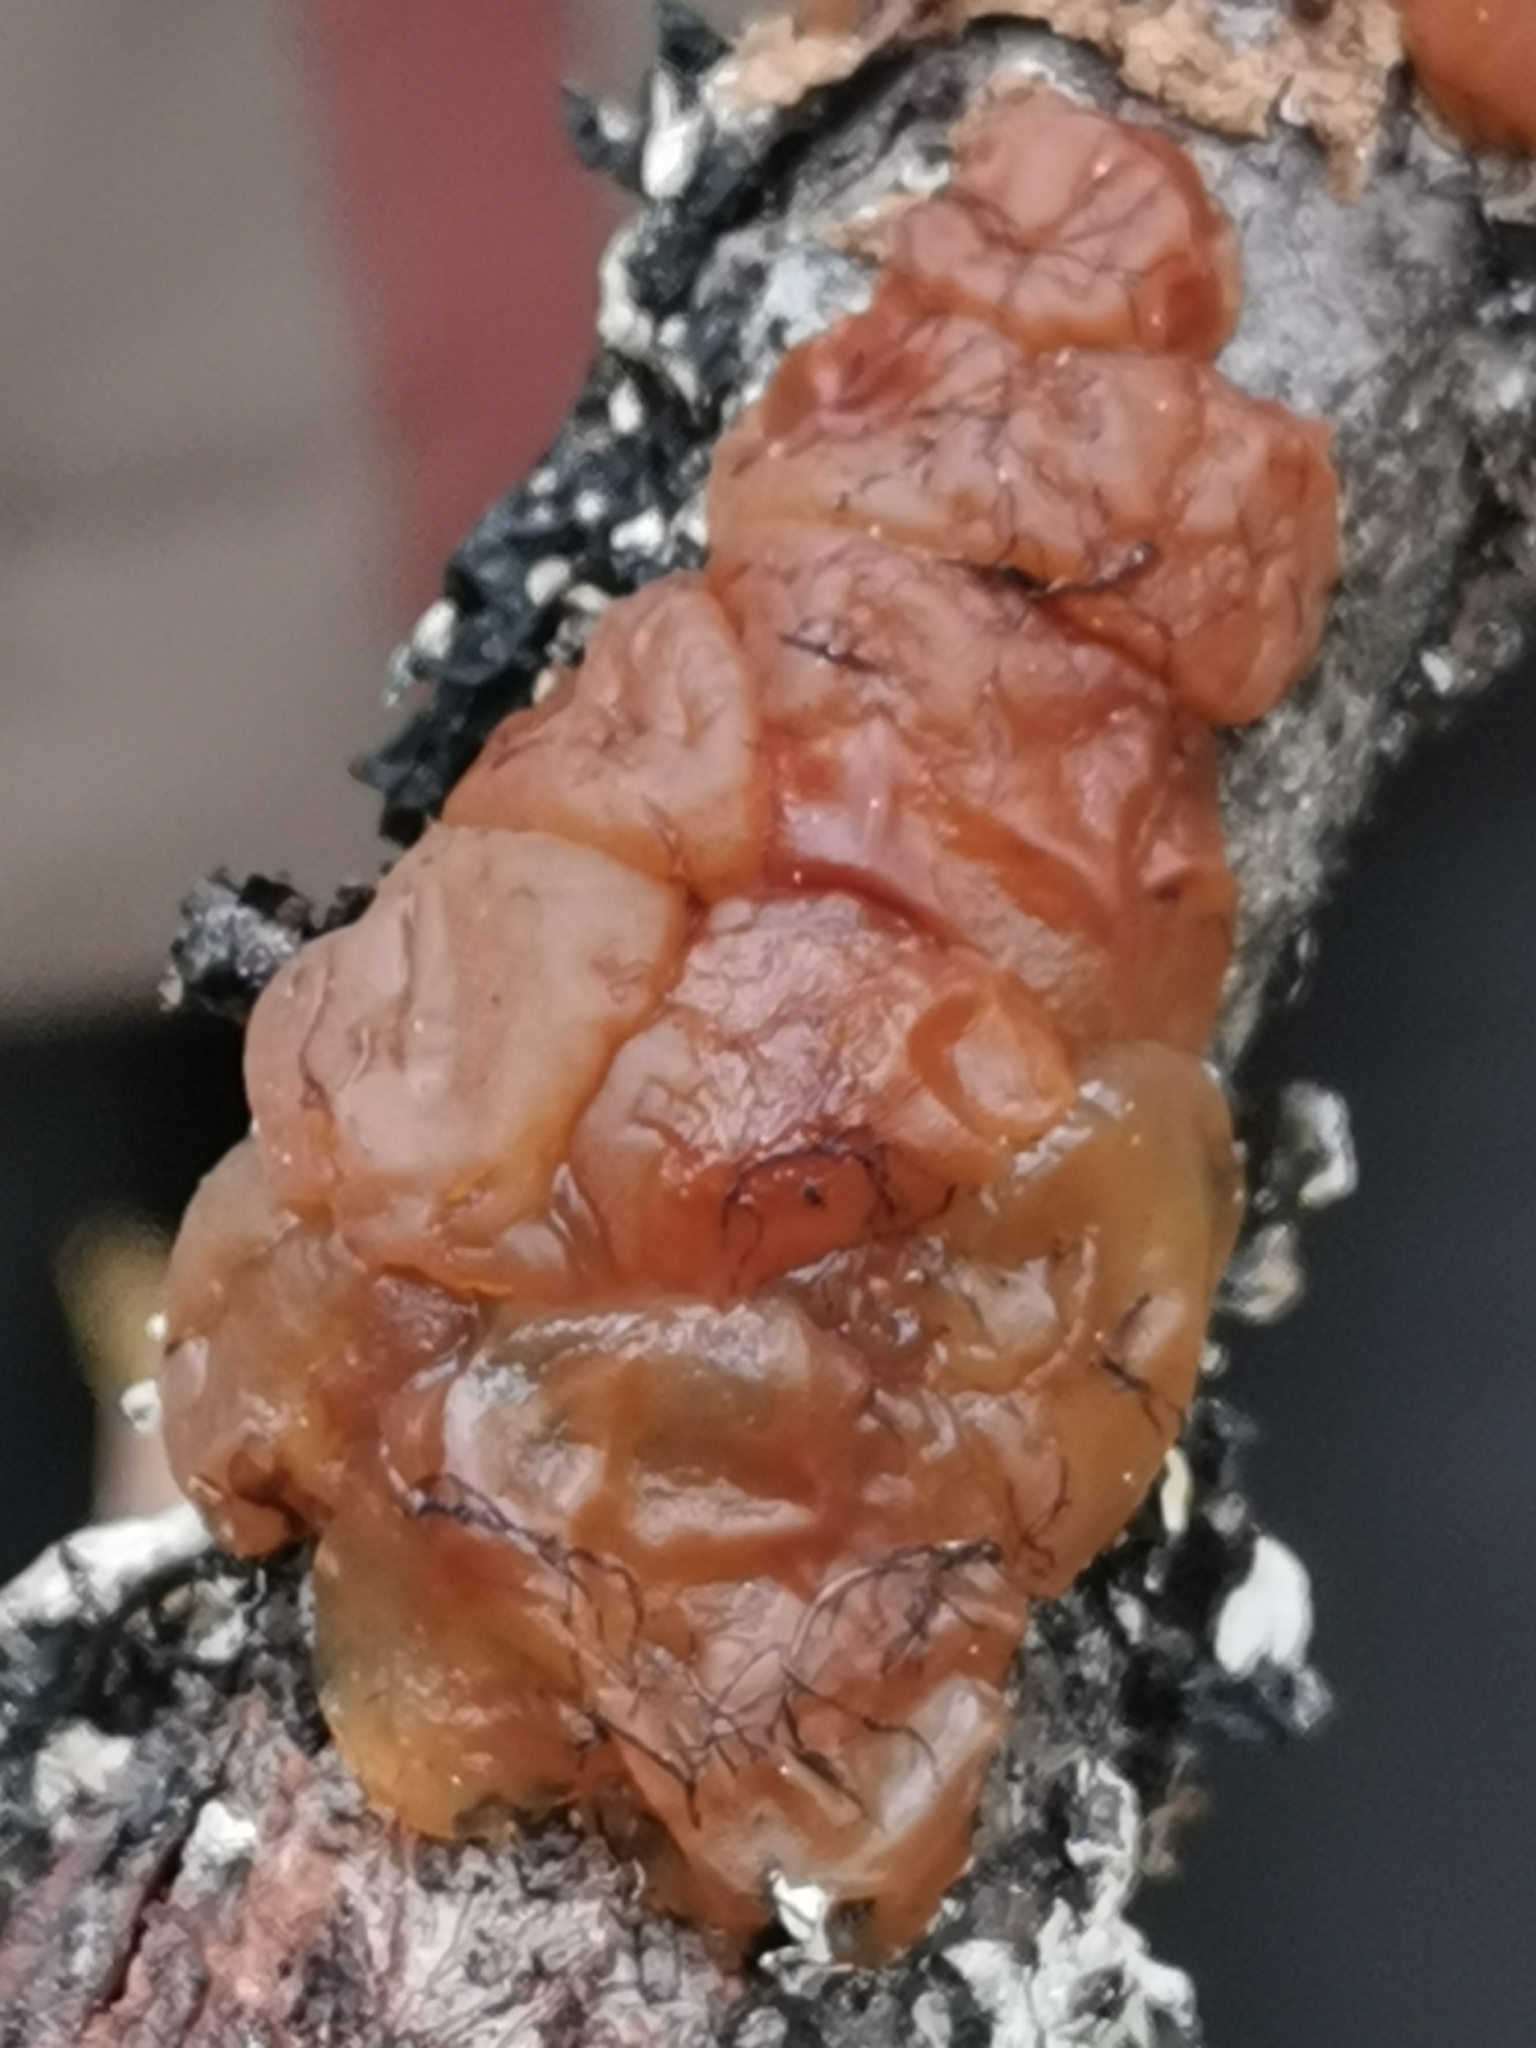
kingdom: Fungi
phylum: Basidiomycota
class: Agaricomycetes
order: Auriculariales
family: Auriculariaceae
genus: Exidia
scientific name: Exidia cartilaginea
